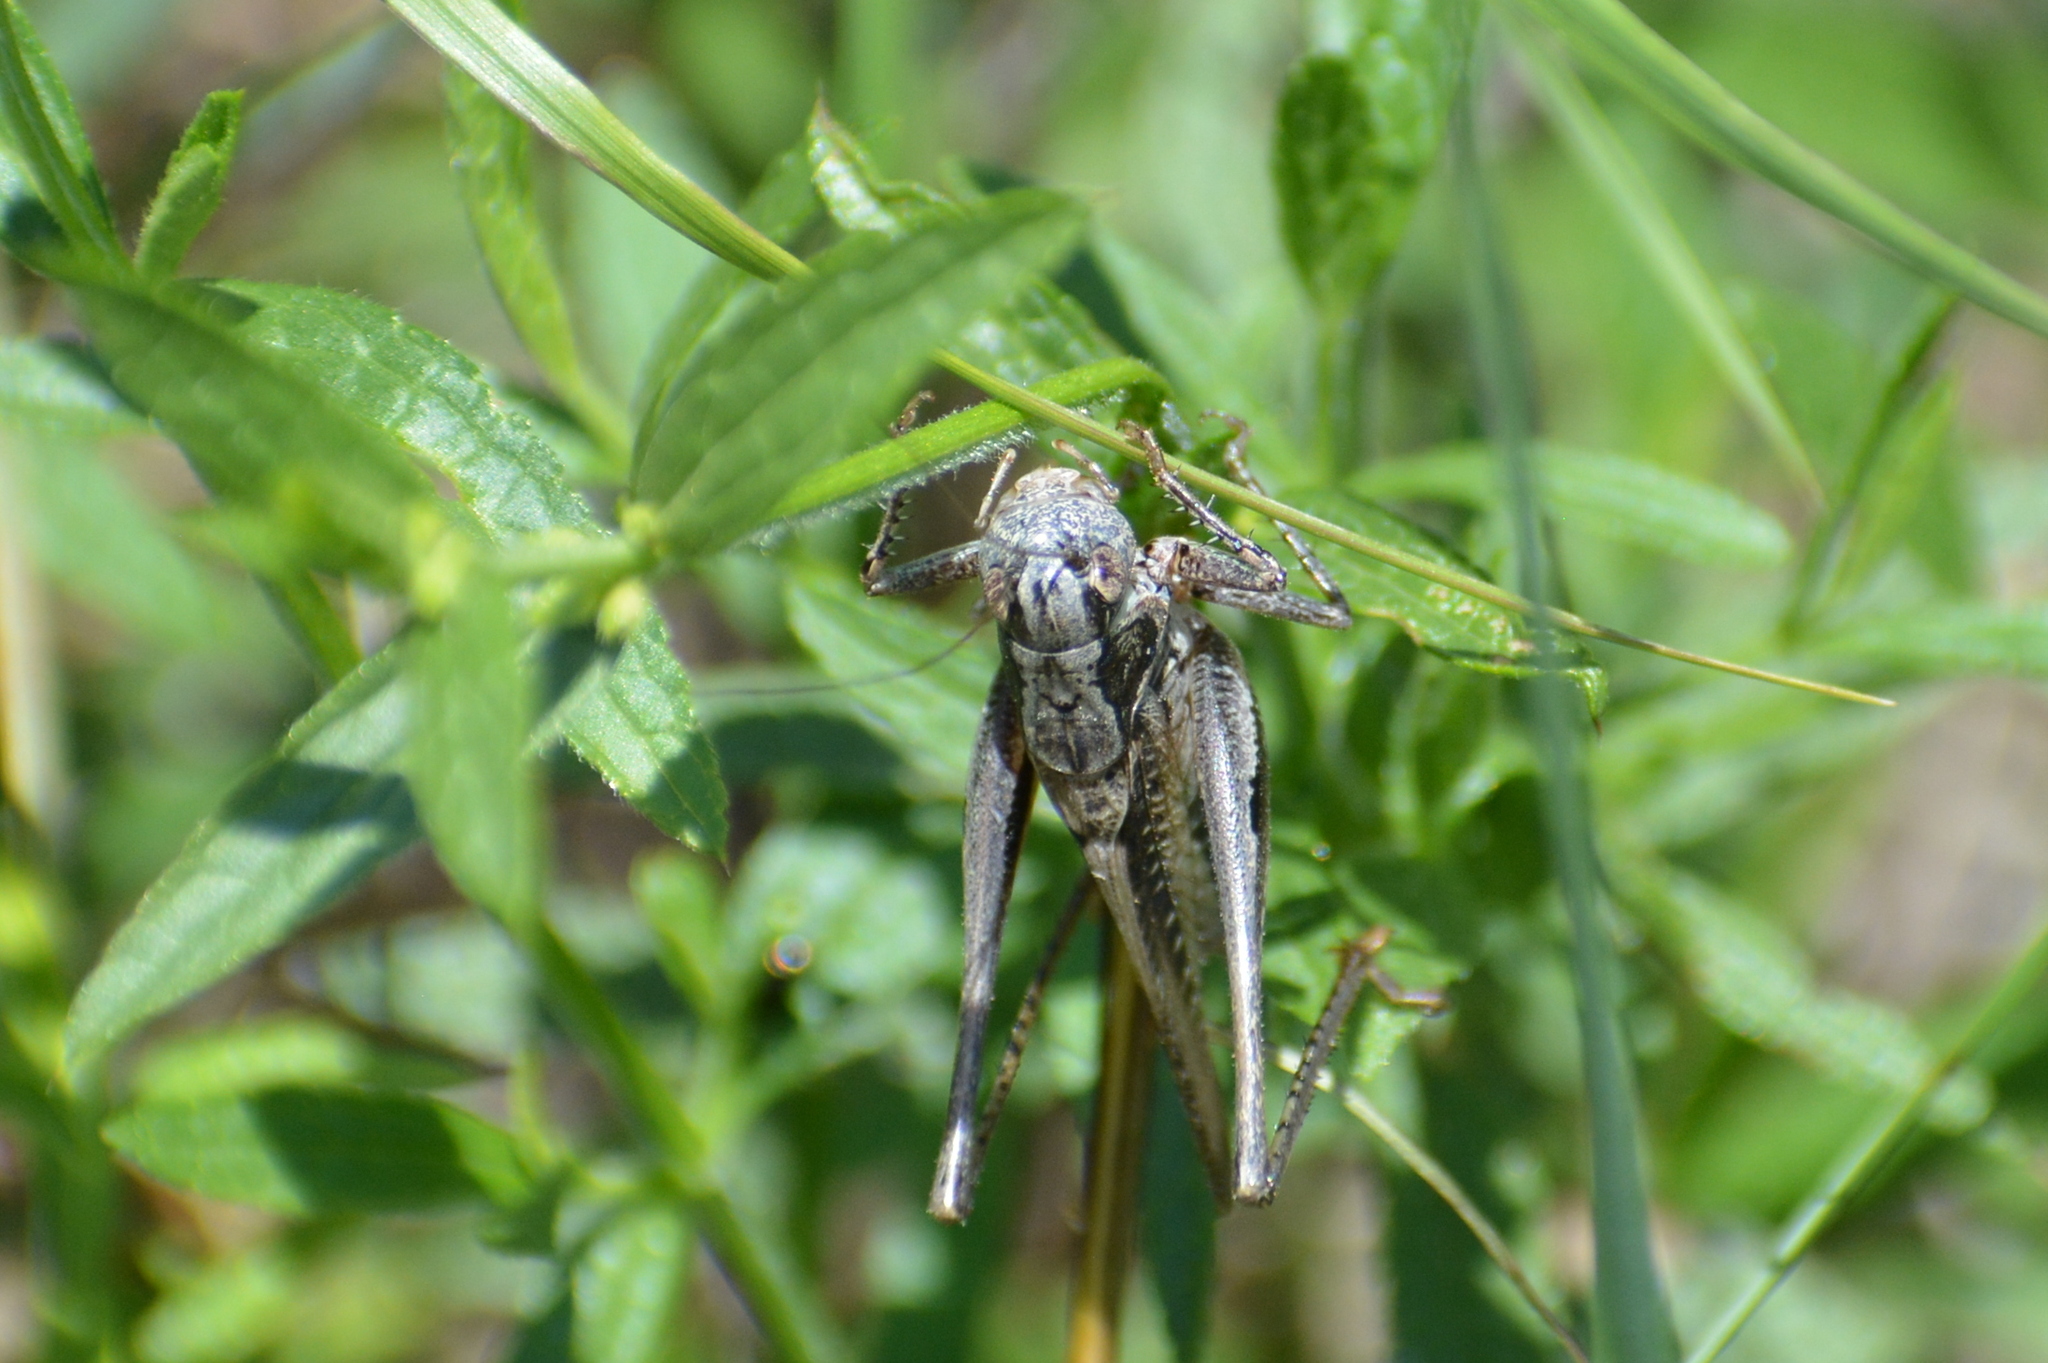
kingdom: Animalia
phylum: Arthropoda
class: Insecta
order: Orthoptera
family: Tettigoniidae
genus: Platycleis
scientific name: Platycleis albopunctata
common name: Grey bush-cricket
